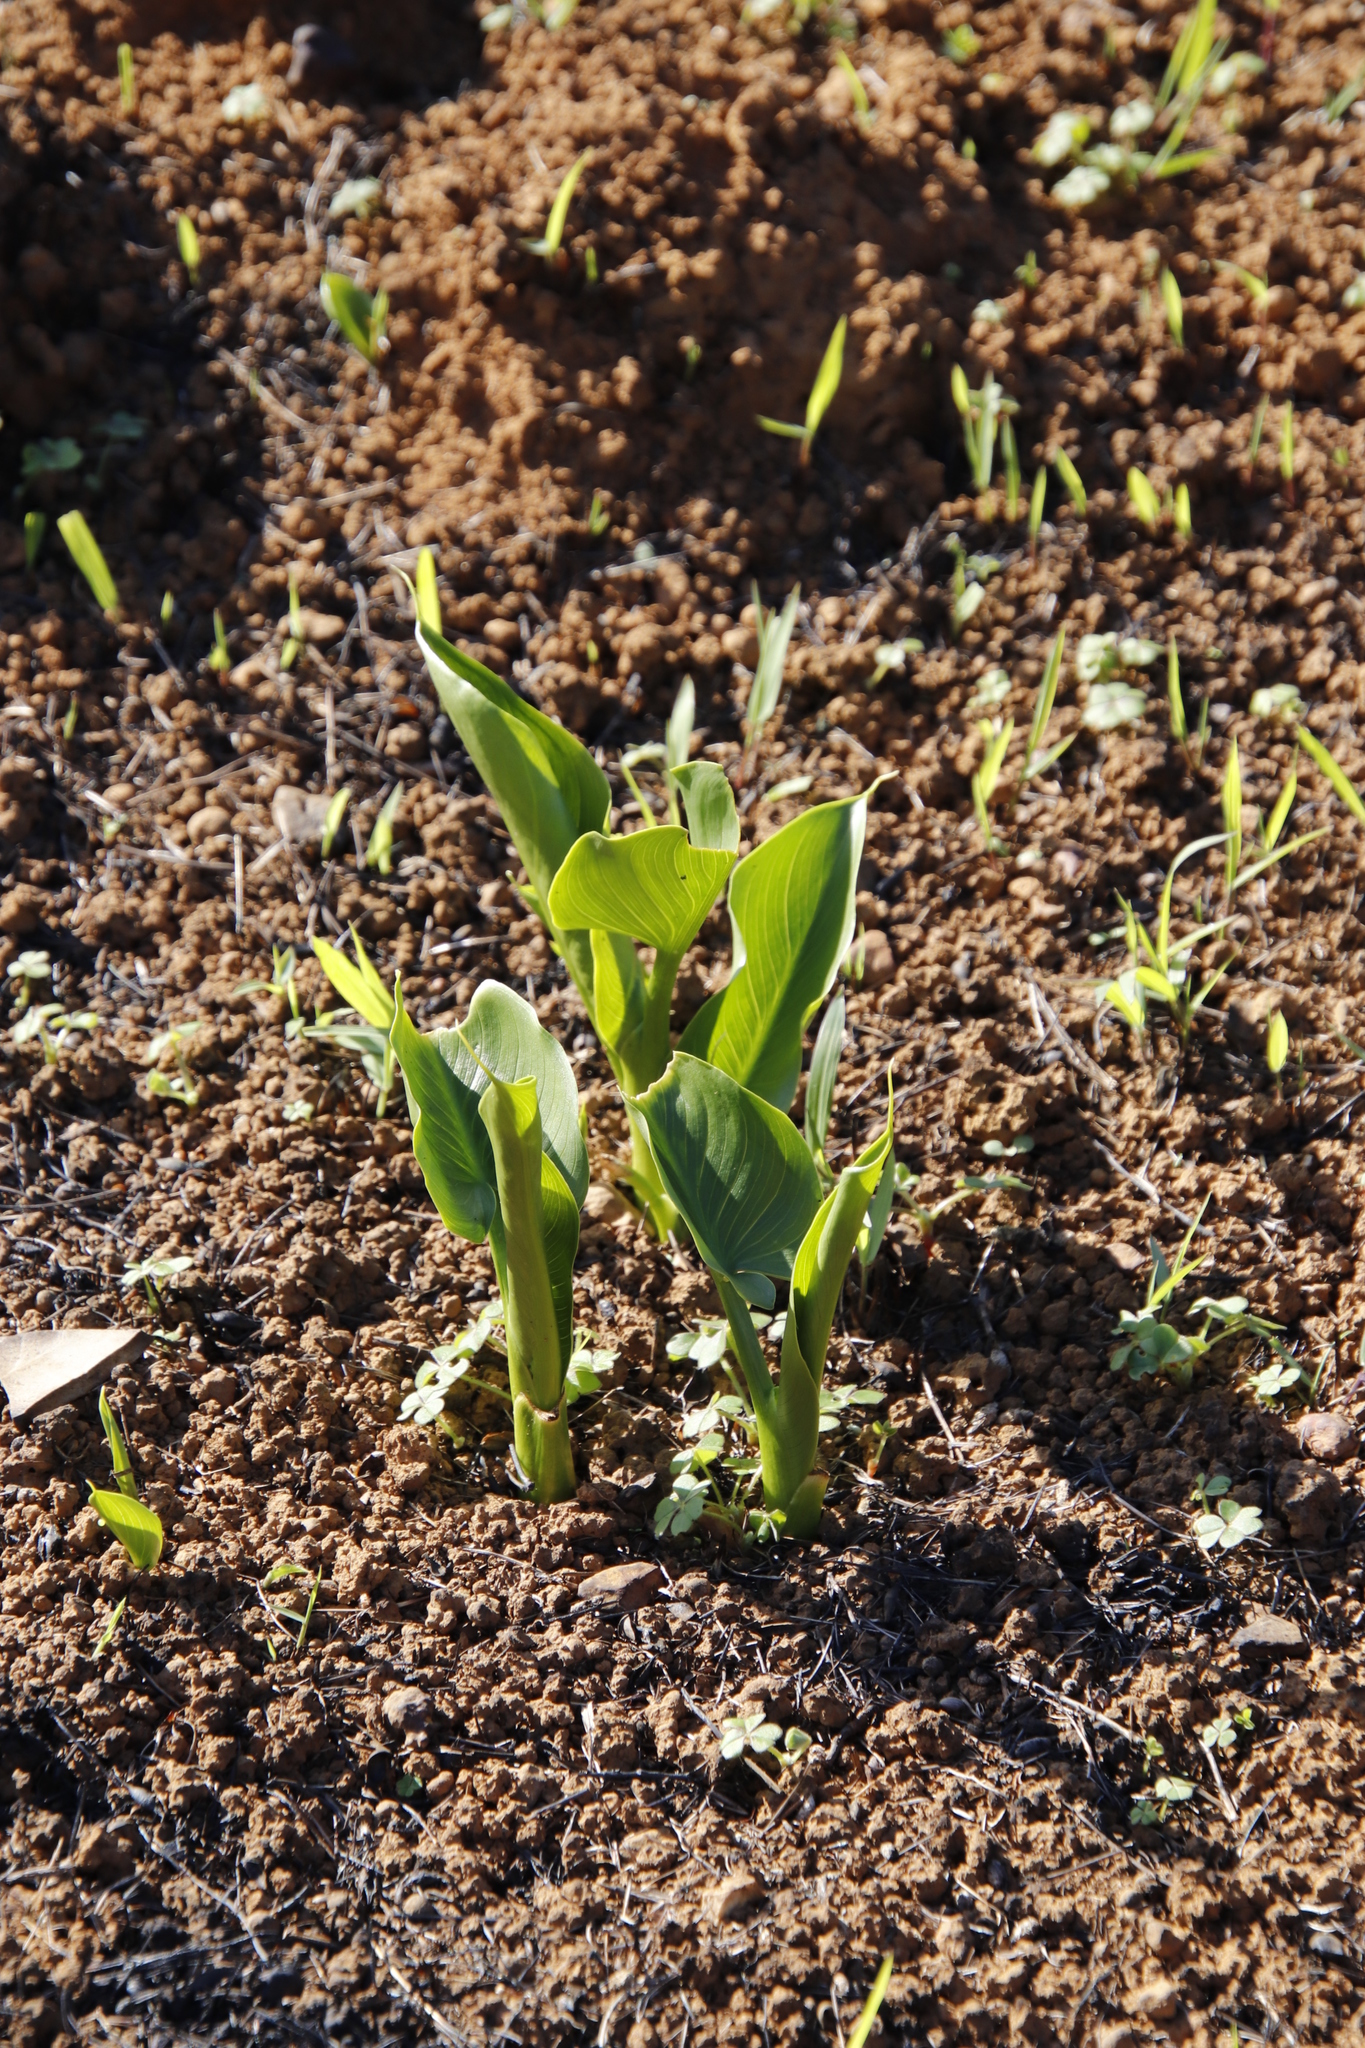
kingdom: Plantae
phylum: Tracheophyta
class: Liliopsida
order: Alismatales
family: Araceae
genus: Zantedeschia
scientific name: Zantedeschia aethiopica
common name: Altar-lily
